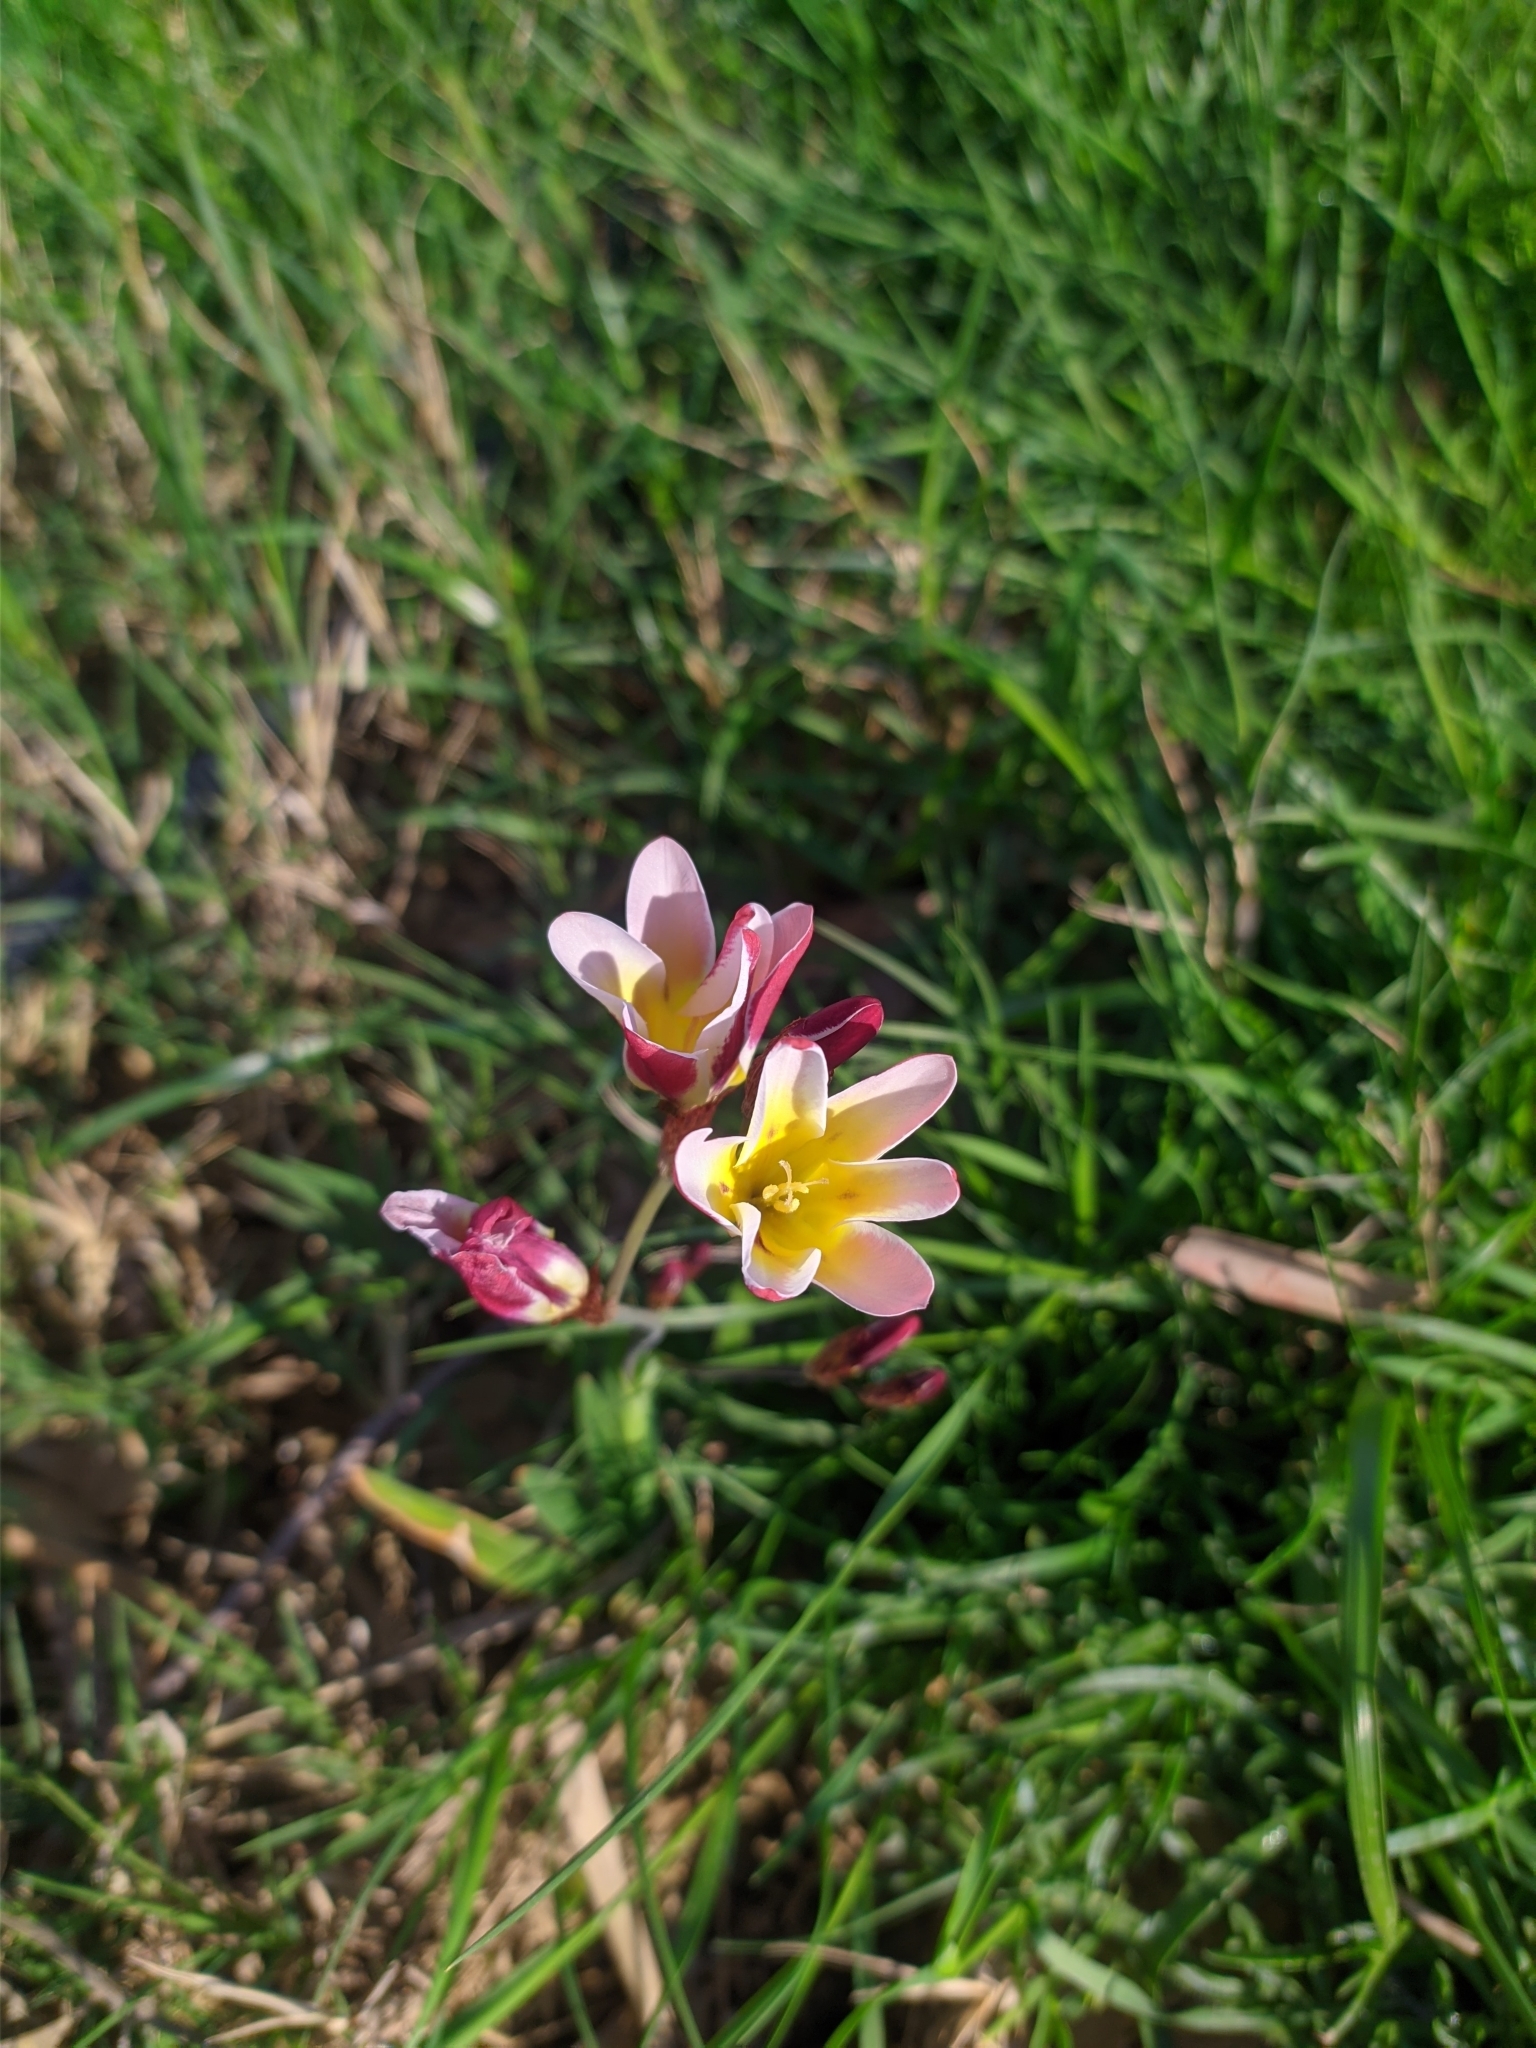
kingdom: Plantae
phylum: Tracheophyta
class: Liliopsida
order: Asparagales
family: Iridaceae
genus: Freesia
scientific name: Freesia leichtlinii
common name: Freesia
